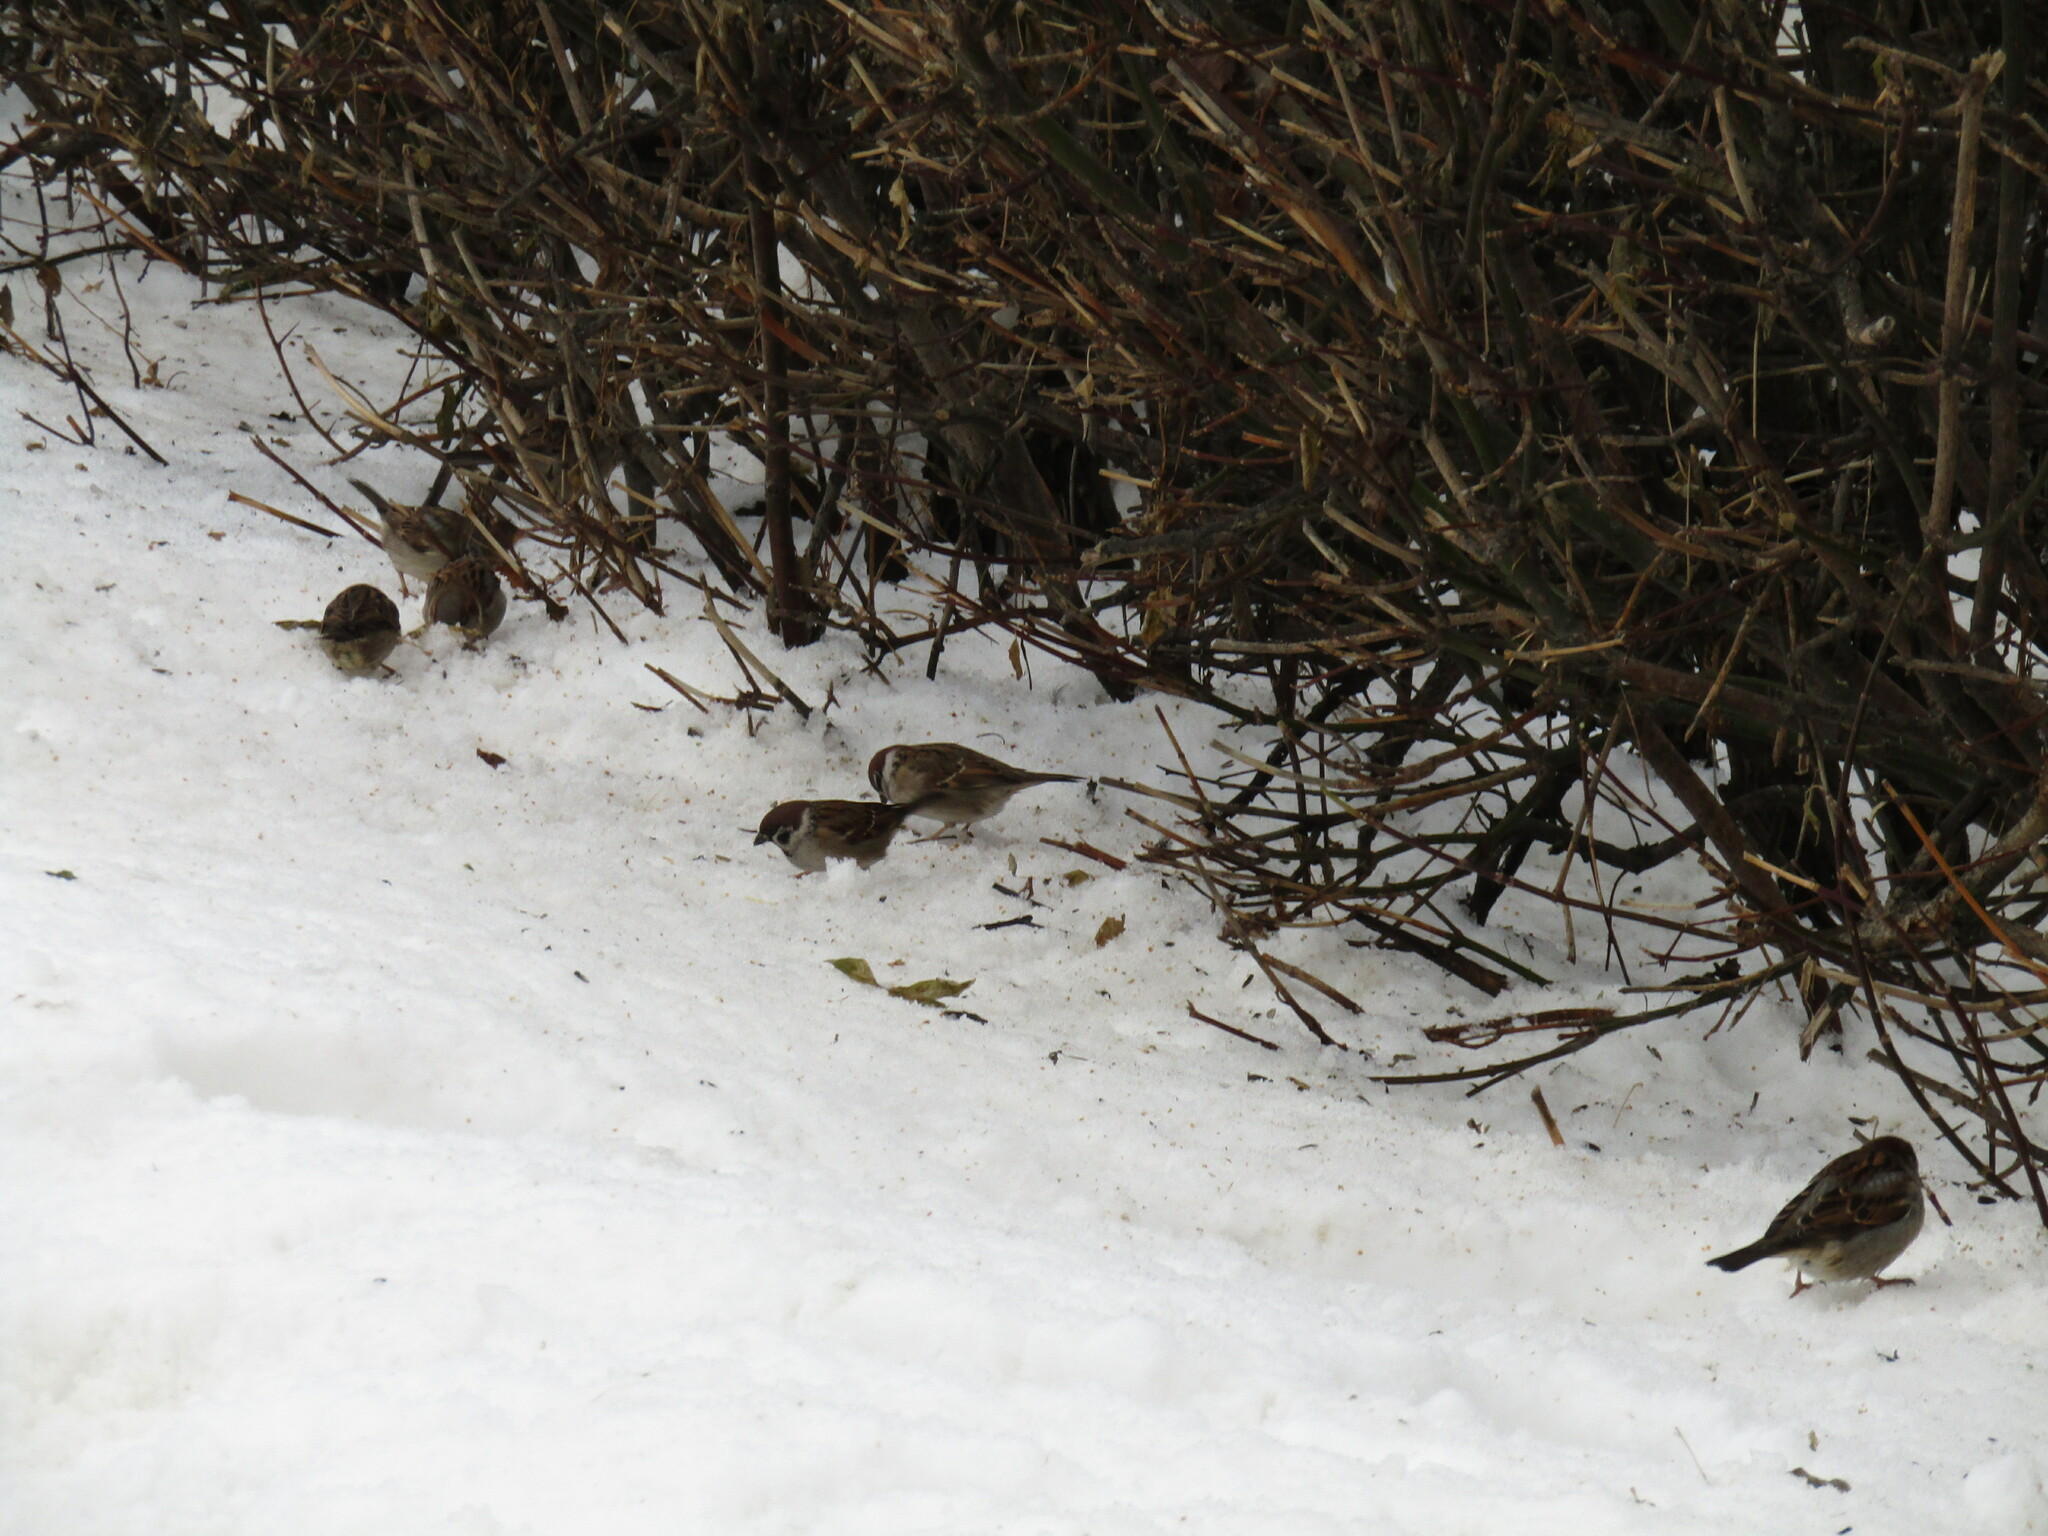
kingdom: Animalia
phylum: Chordata
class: Aves
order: Passeriformes
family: Passeridae
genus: Passer
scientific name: Passer montanus
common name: Eurasian tree sparrow
